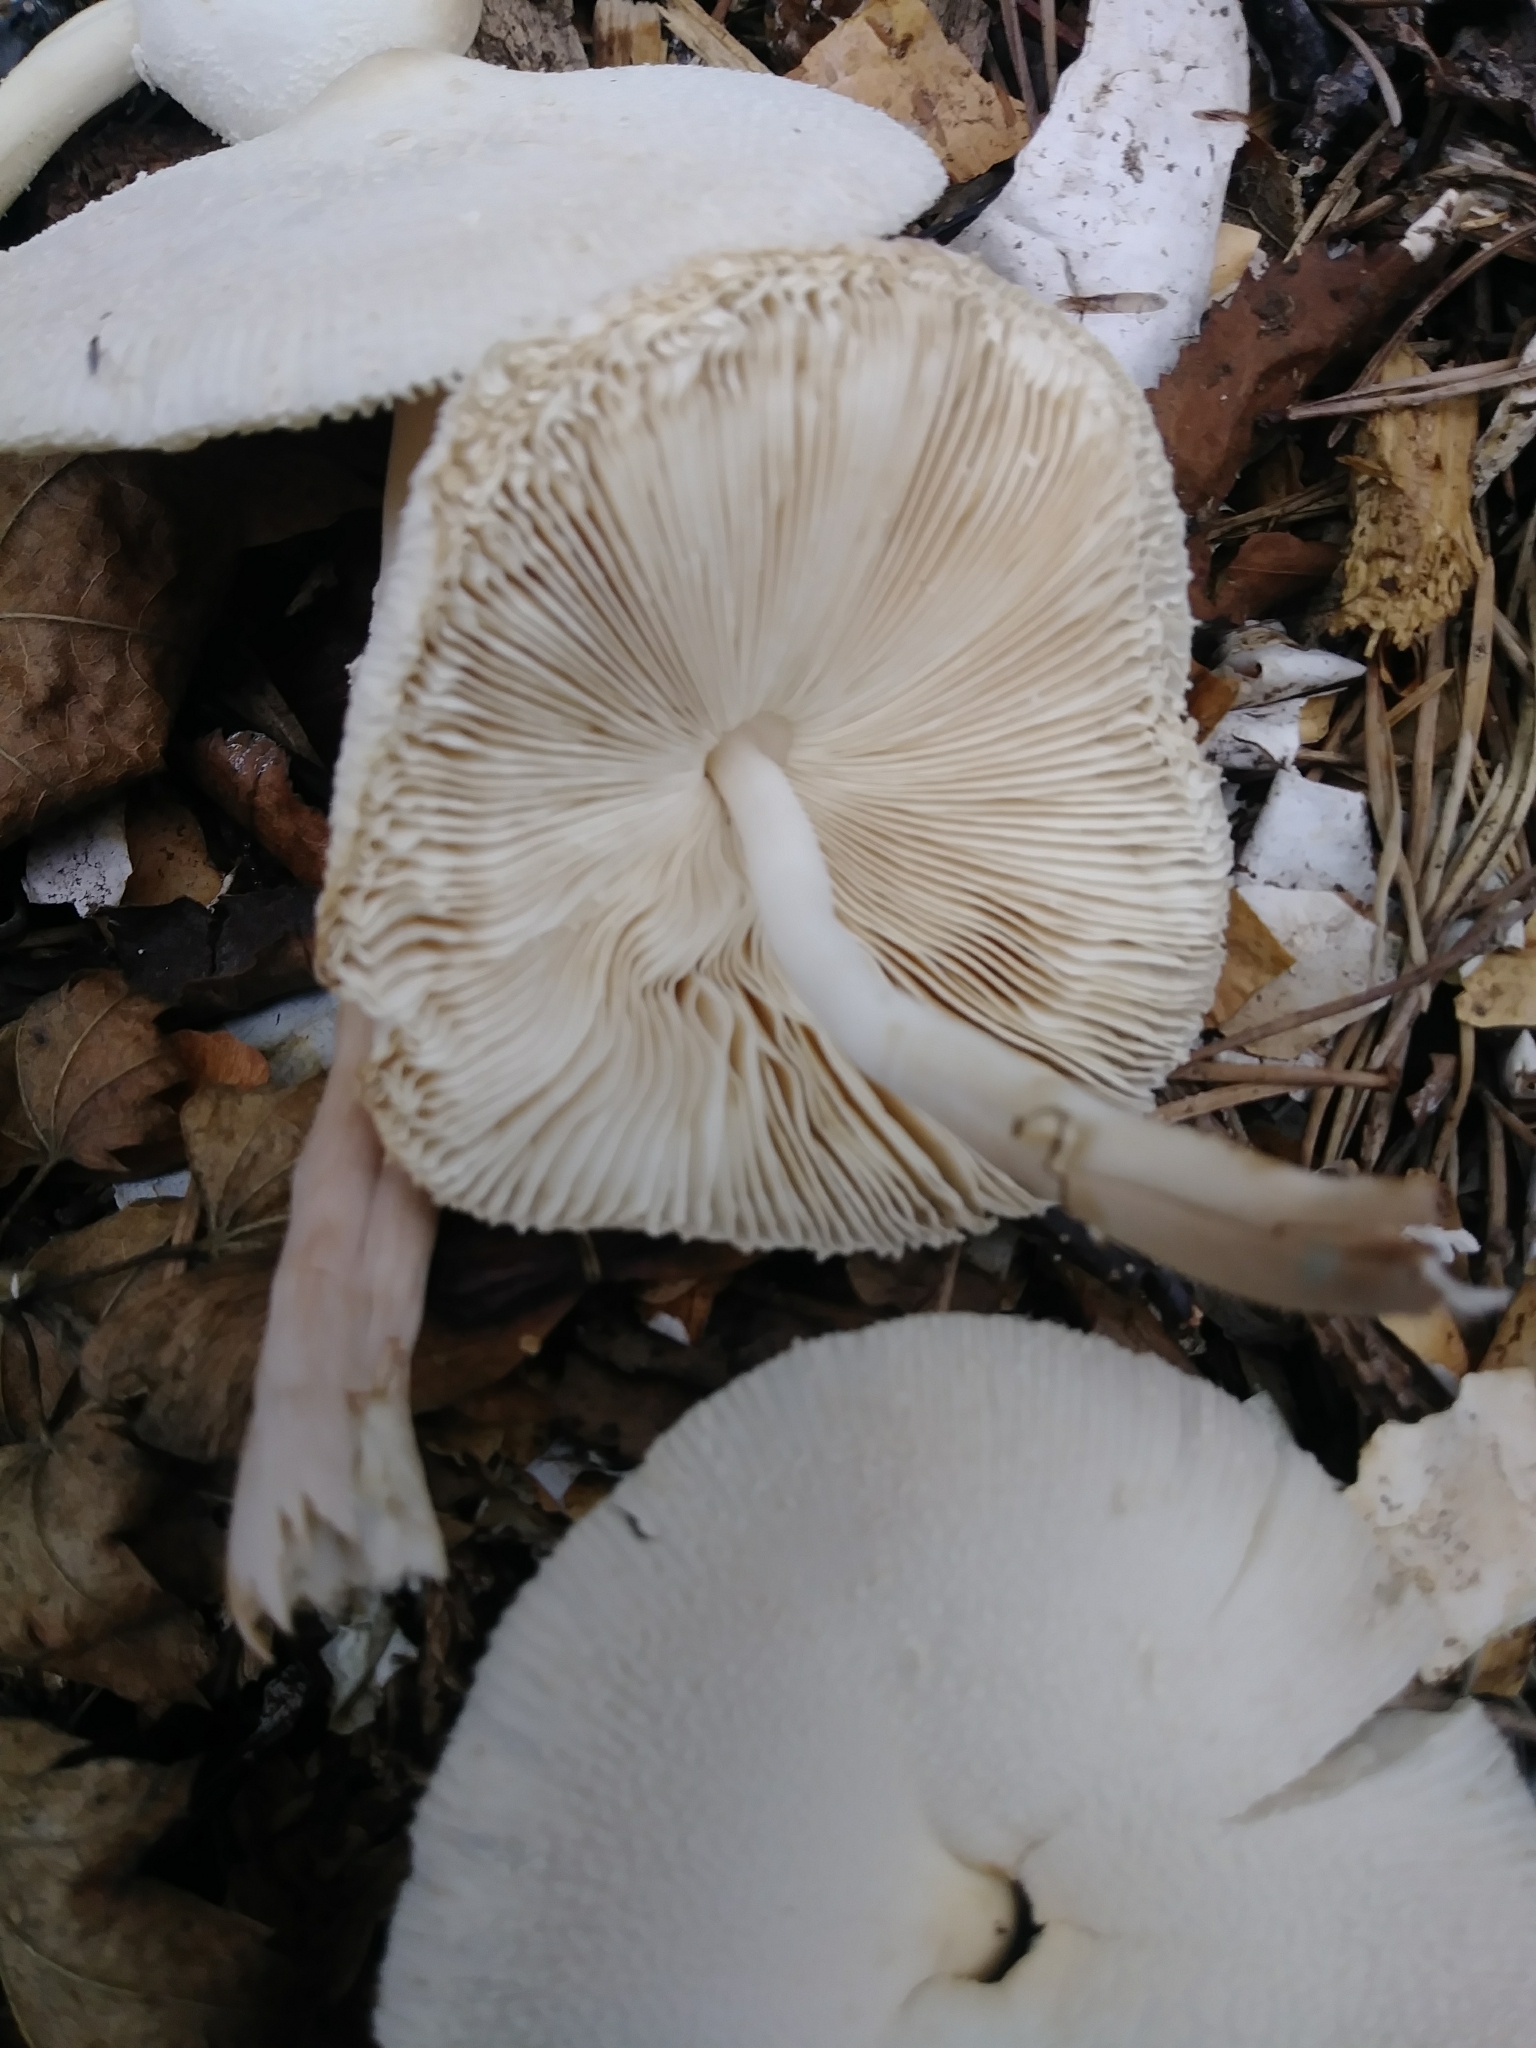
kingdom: Fungi
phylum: Basidiomycota
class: Agaricomycetes
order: Agaricales
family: Agaricaceae
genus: Leucocoprinus
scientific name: Leucocoprinus cepistipes
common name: Onion-stalk parasol
